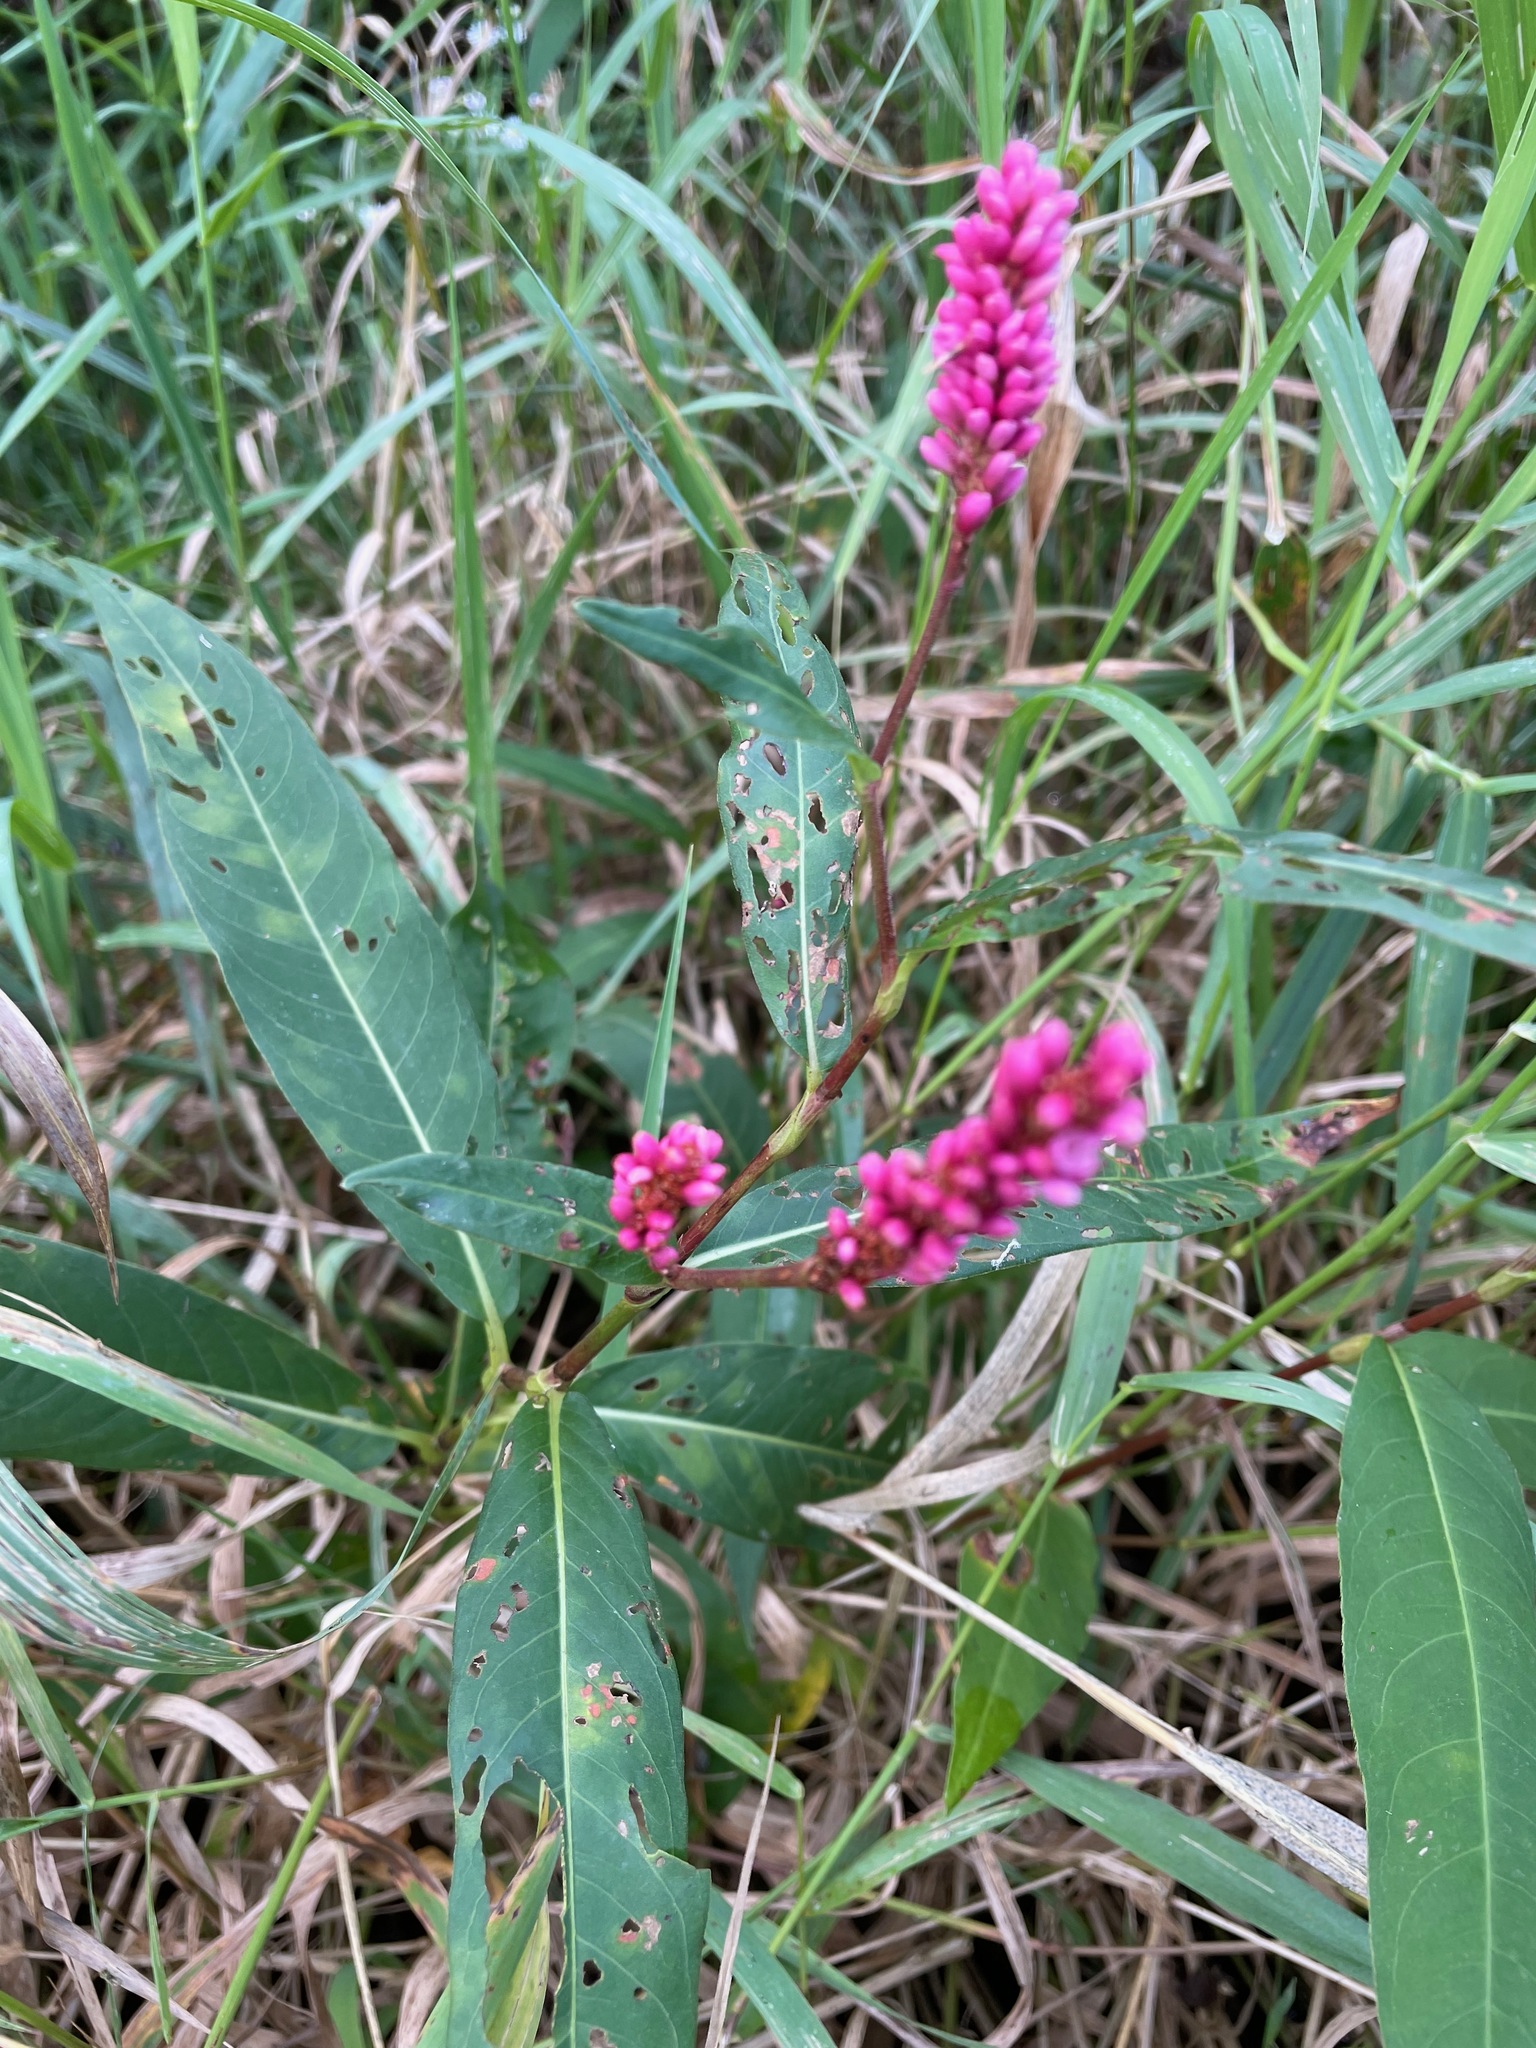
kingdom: Plantae
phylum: Tracheophyta
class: Magnoliopsida
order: Caryophyllales
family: Polygonaceae
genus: Persicaria
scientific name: Persicaria amphibia
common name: Amphibious bistort
